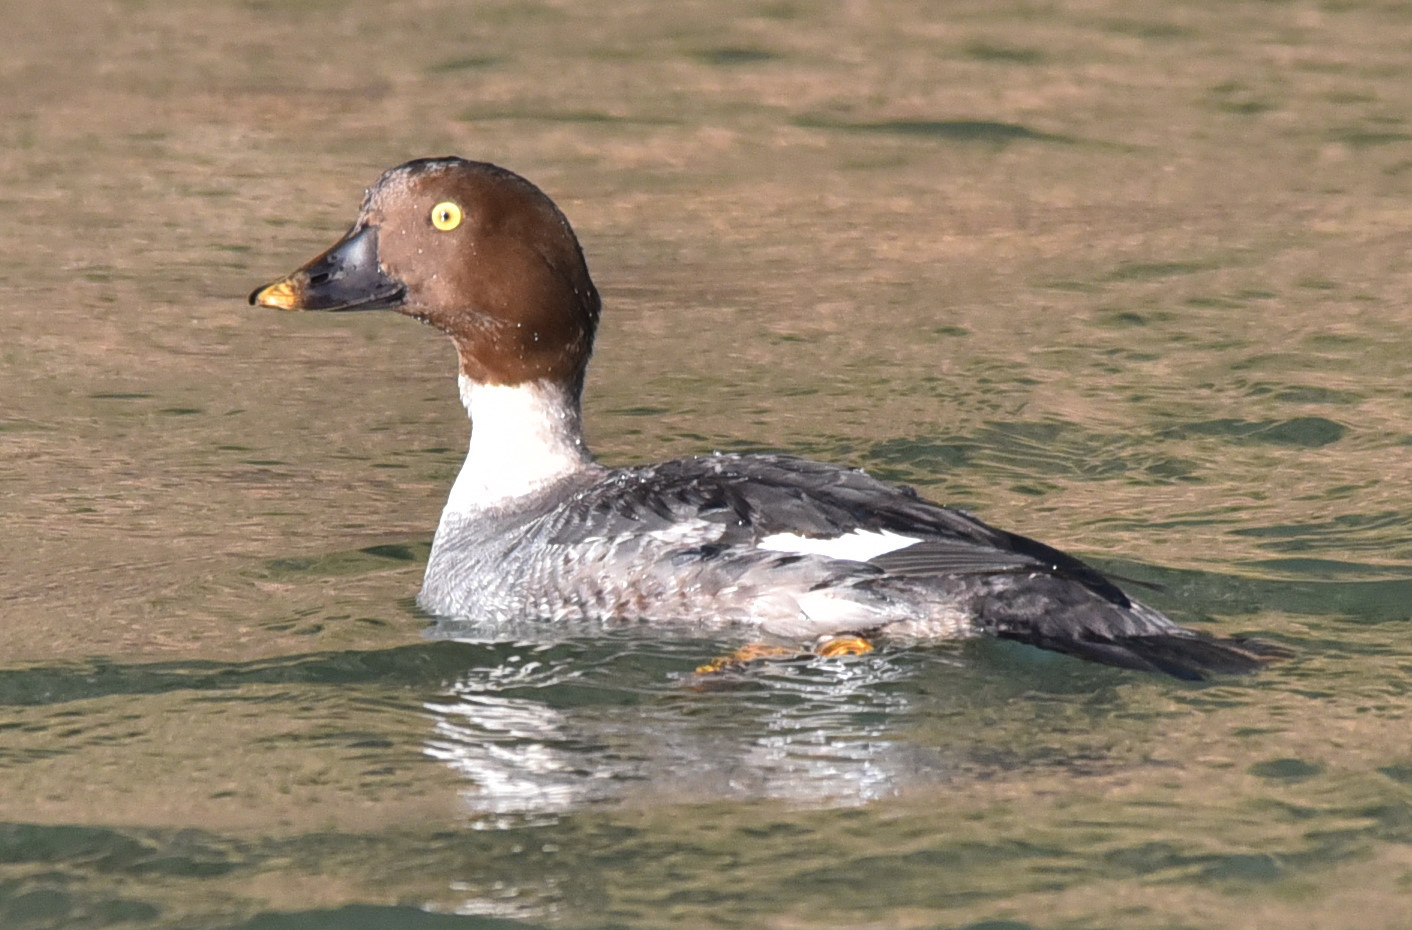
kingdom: Animalia
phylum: Chordata
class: Aves
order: Anseriformes
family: Anatidae
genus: Bucephala
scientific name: Bucephala clangula
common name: Common goldeneye
